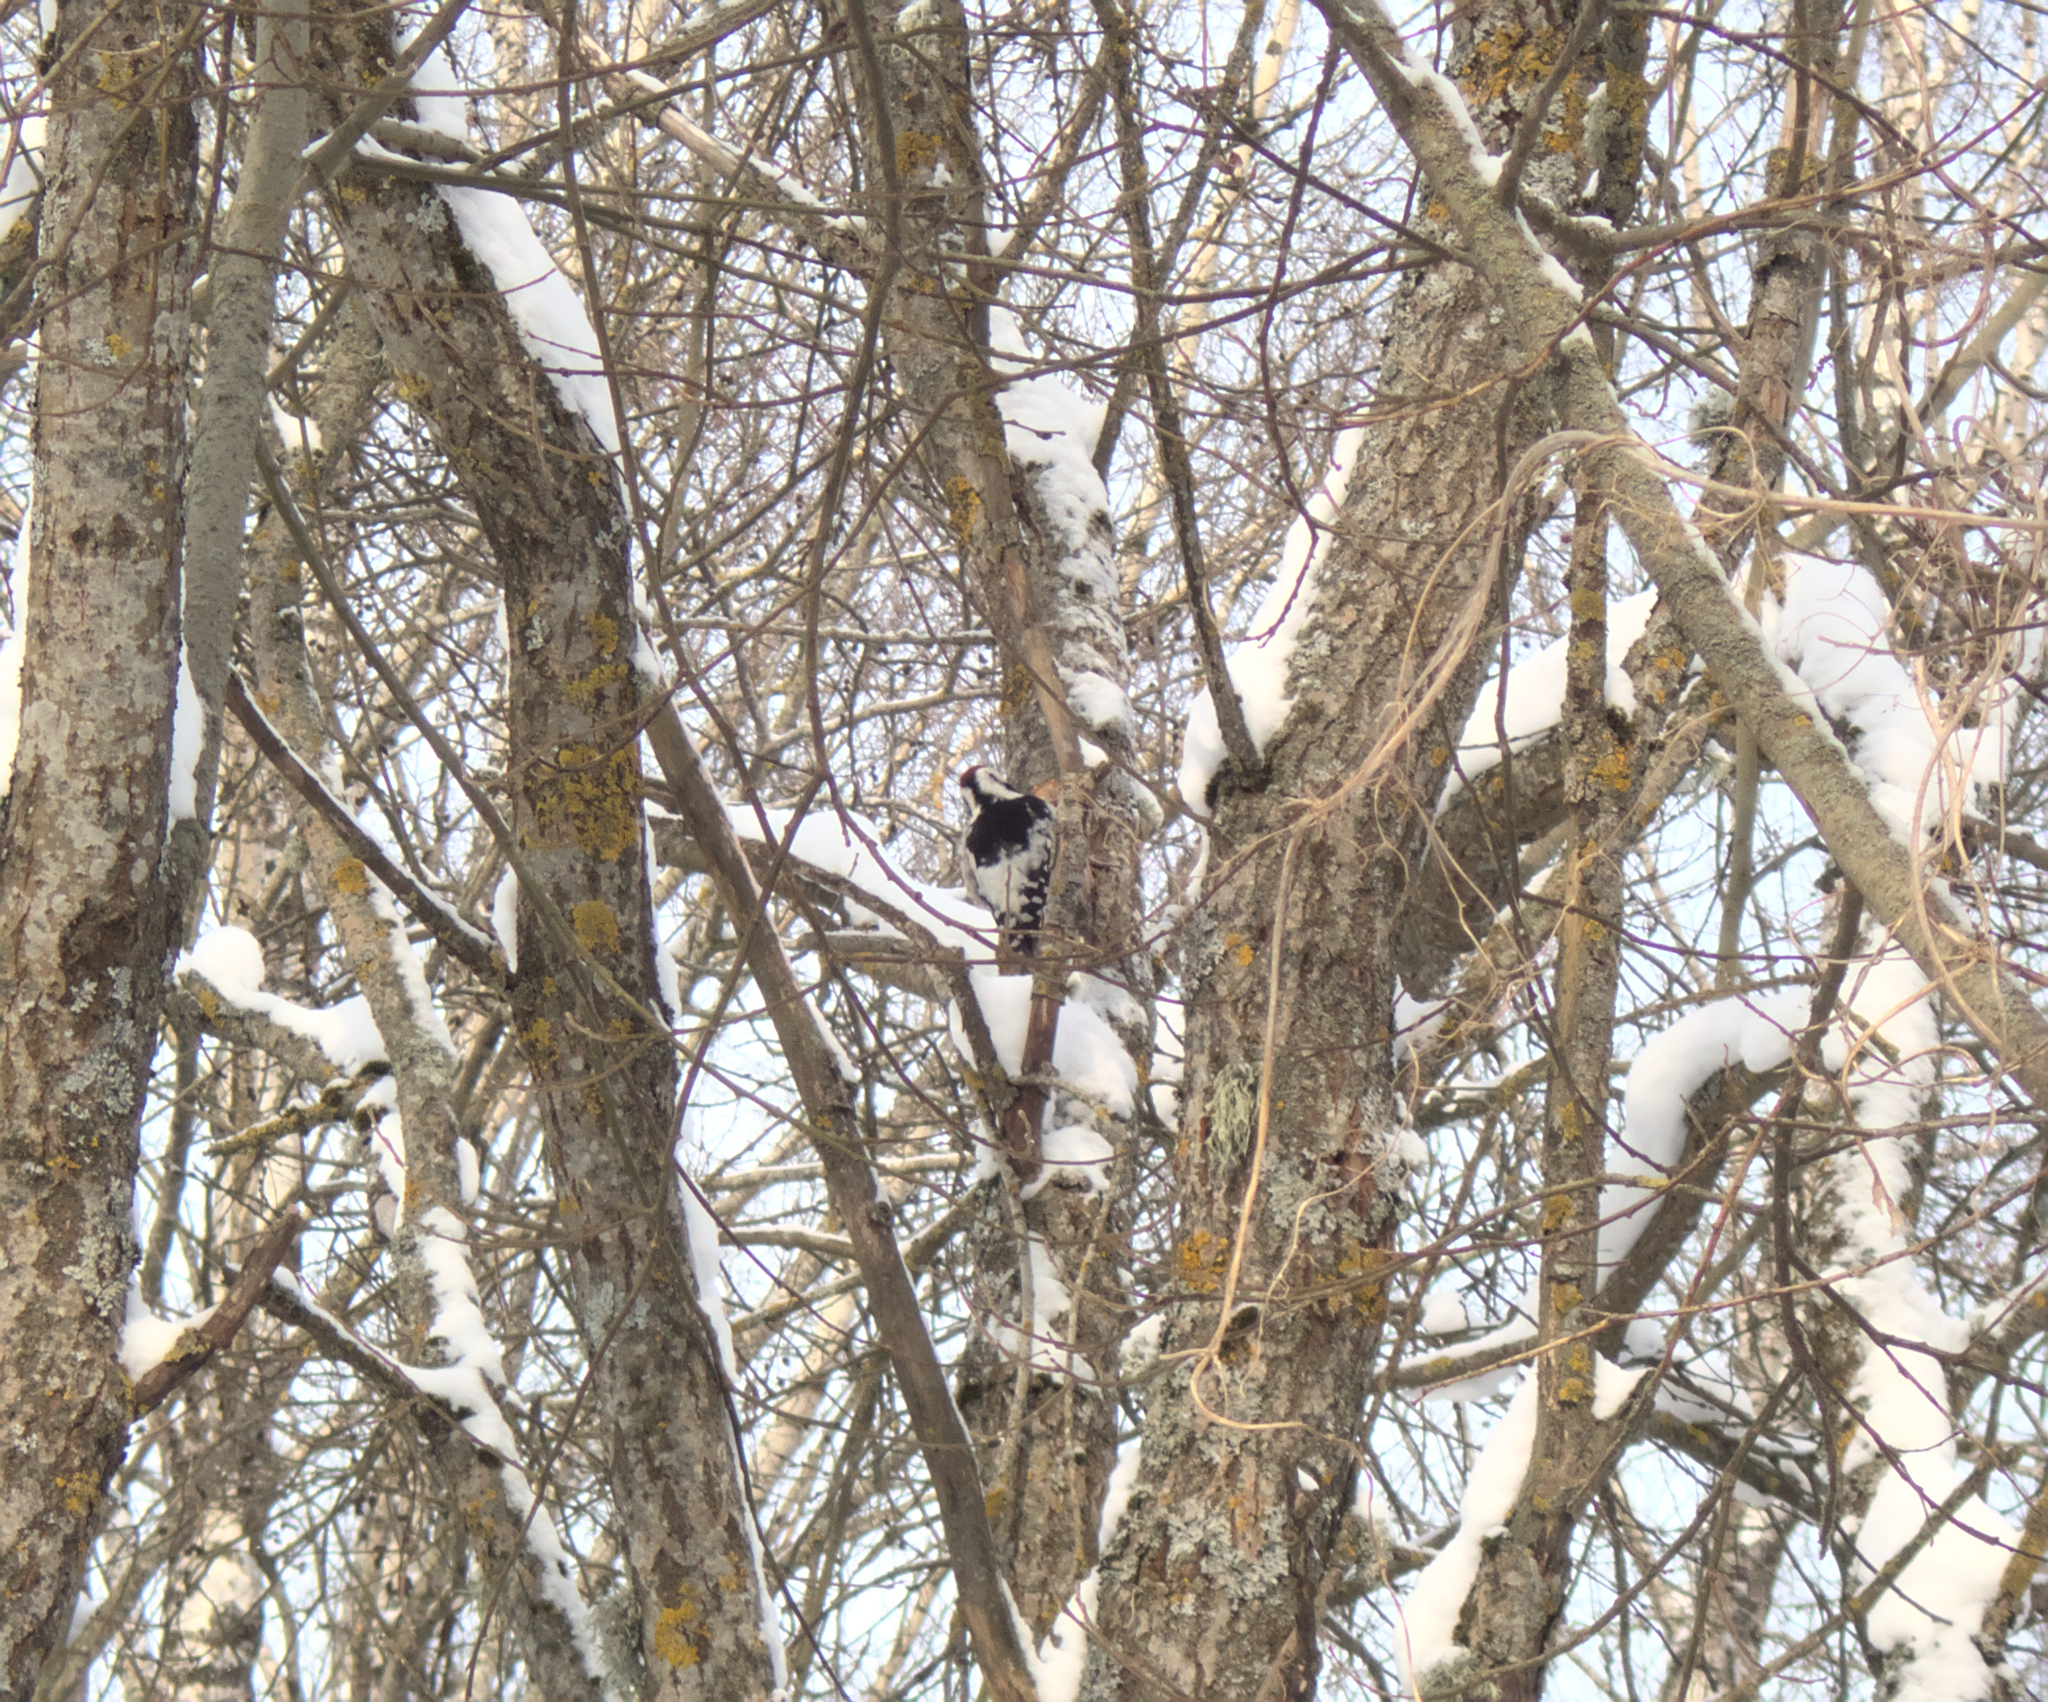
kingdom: Animalia
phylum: Chordata
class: Aves
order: Piciformes
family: Picidae
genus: Dendrocopos
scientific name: Dendrocopos leucotos
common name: White-backed woodpecker
